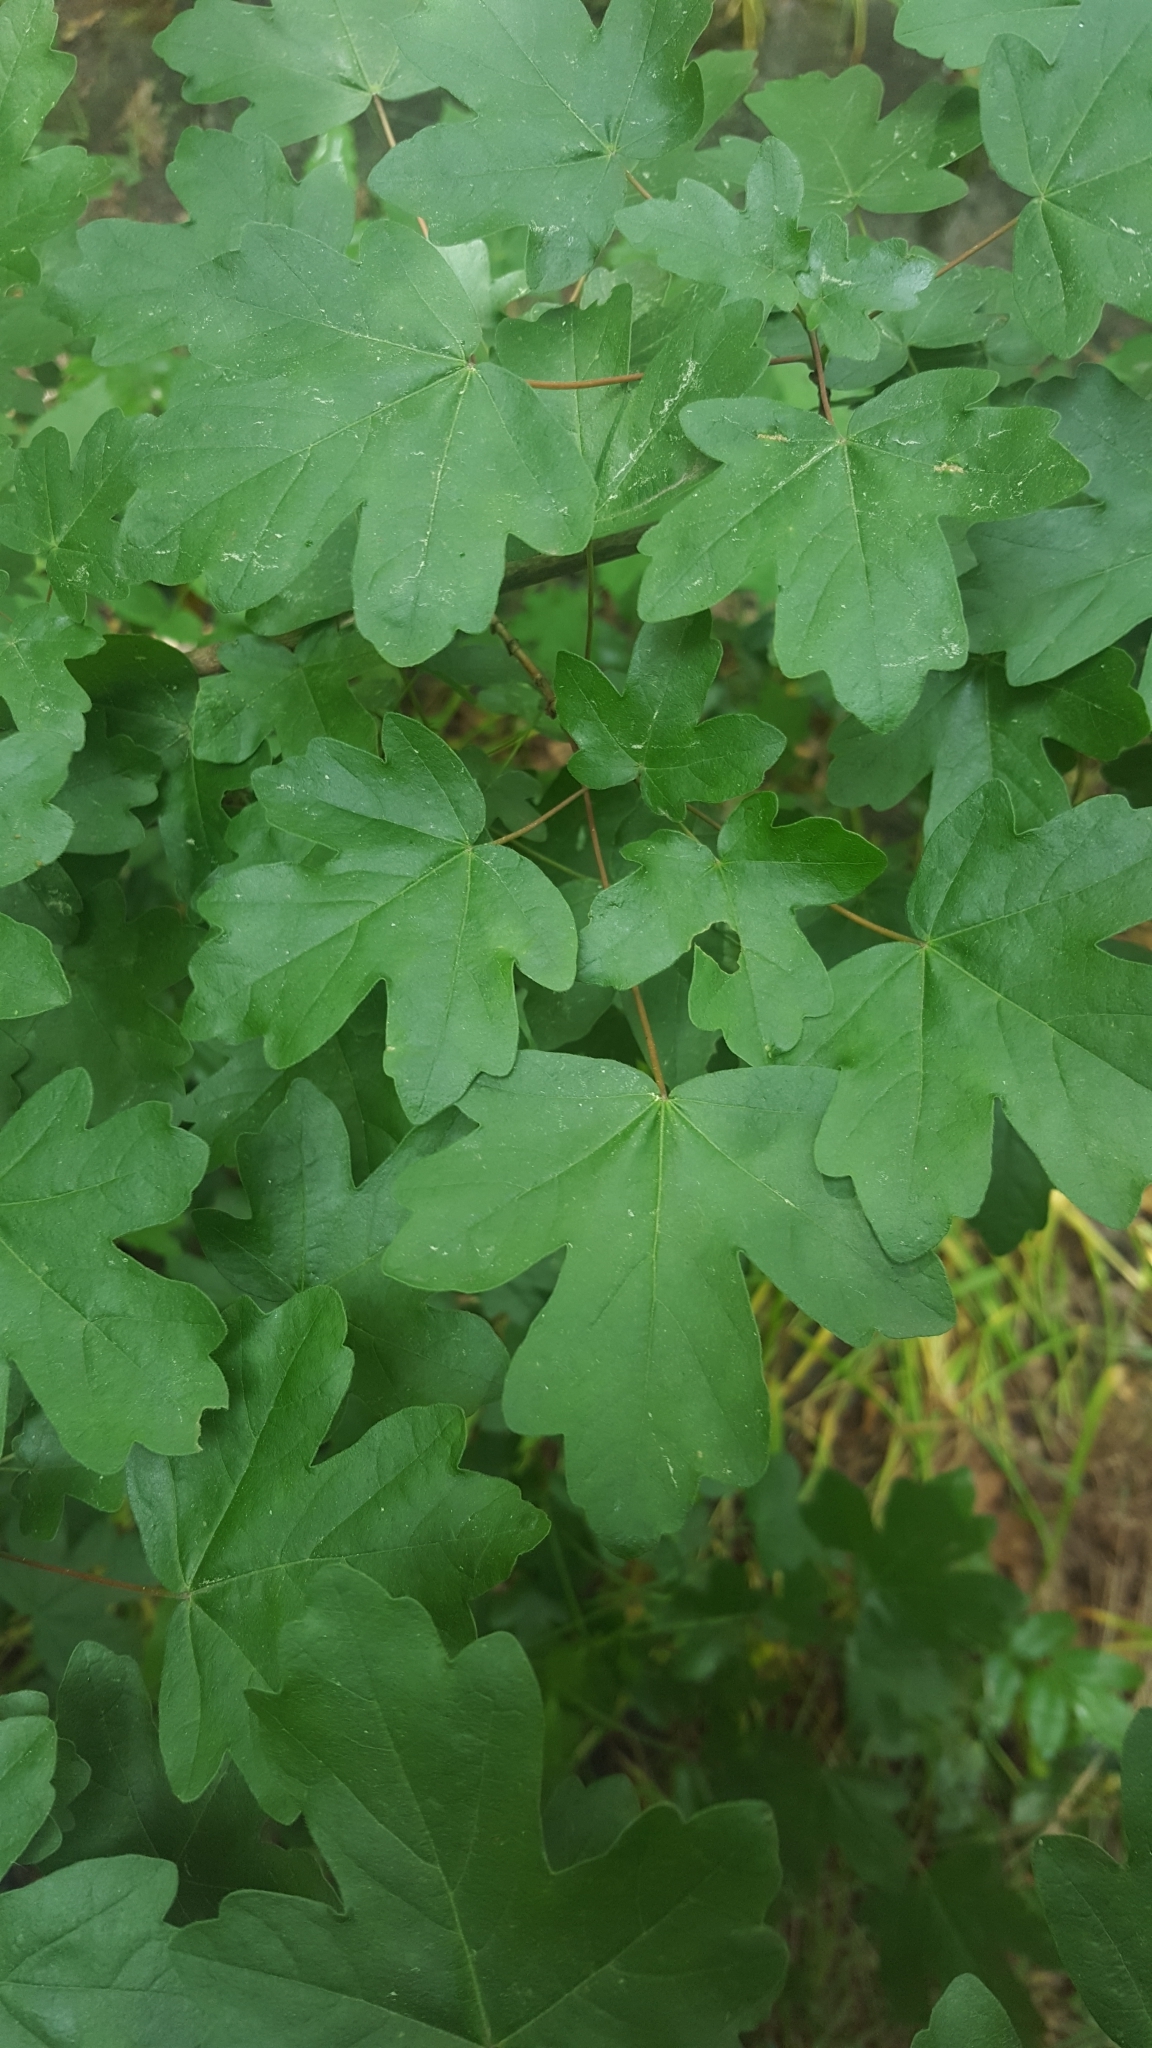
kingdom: Plantae
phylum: Tracheophyta
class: Magnoliopsida
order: Sapindales
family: Sapindaceae
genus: Acer
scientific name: Acer campestre
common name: Field maple
